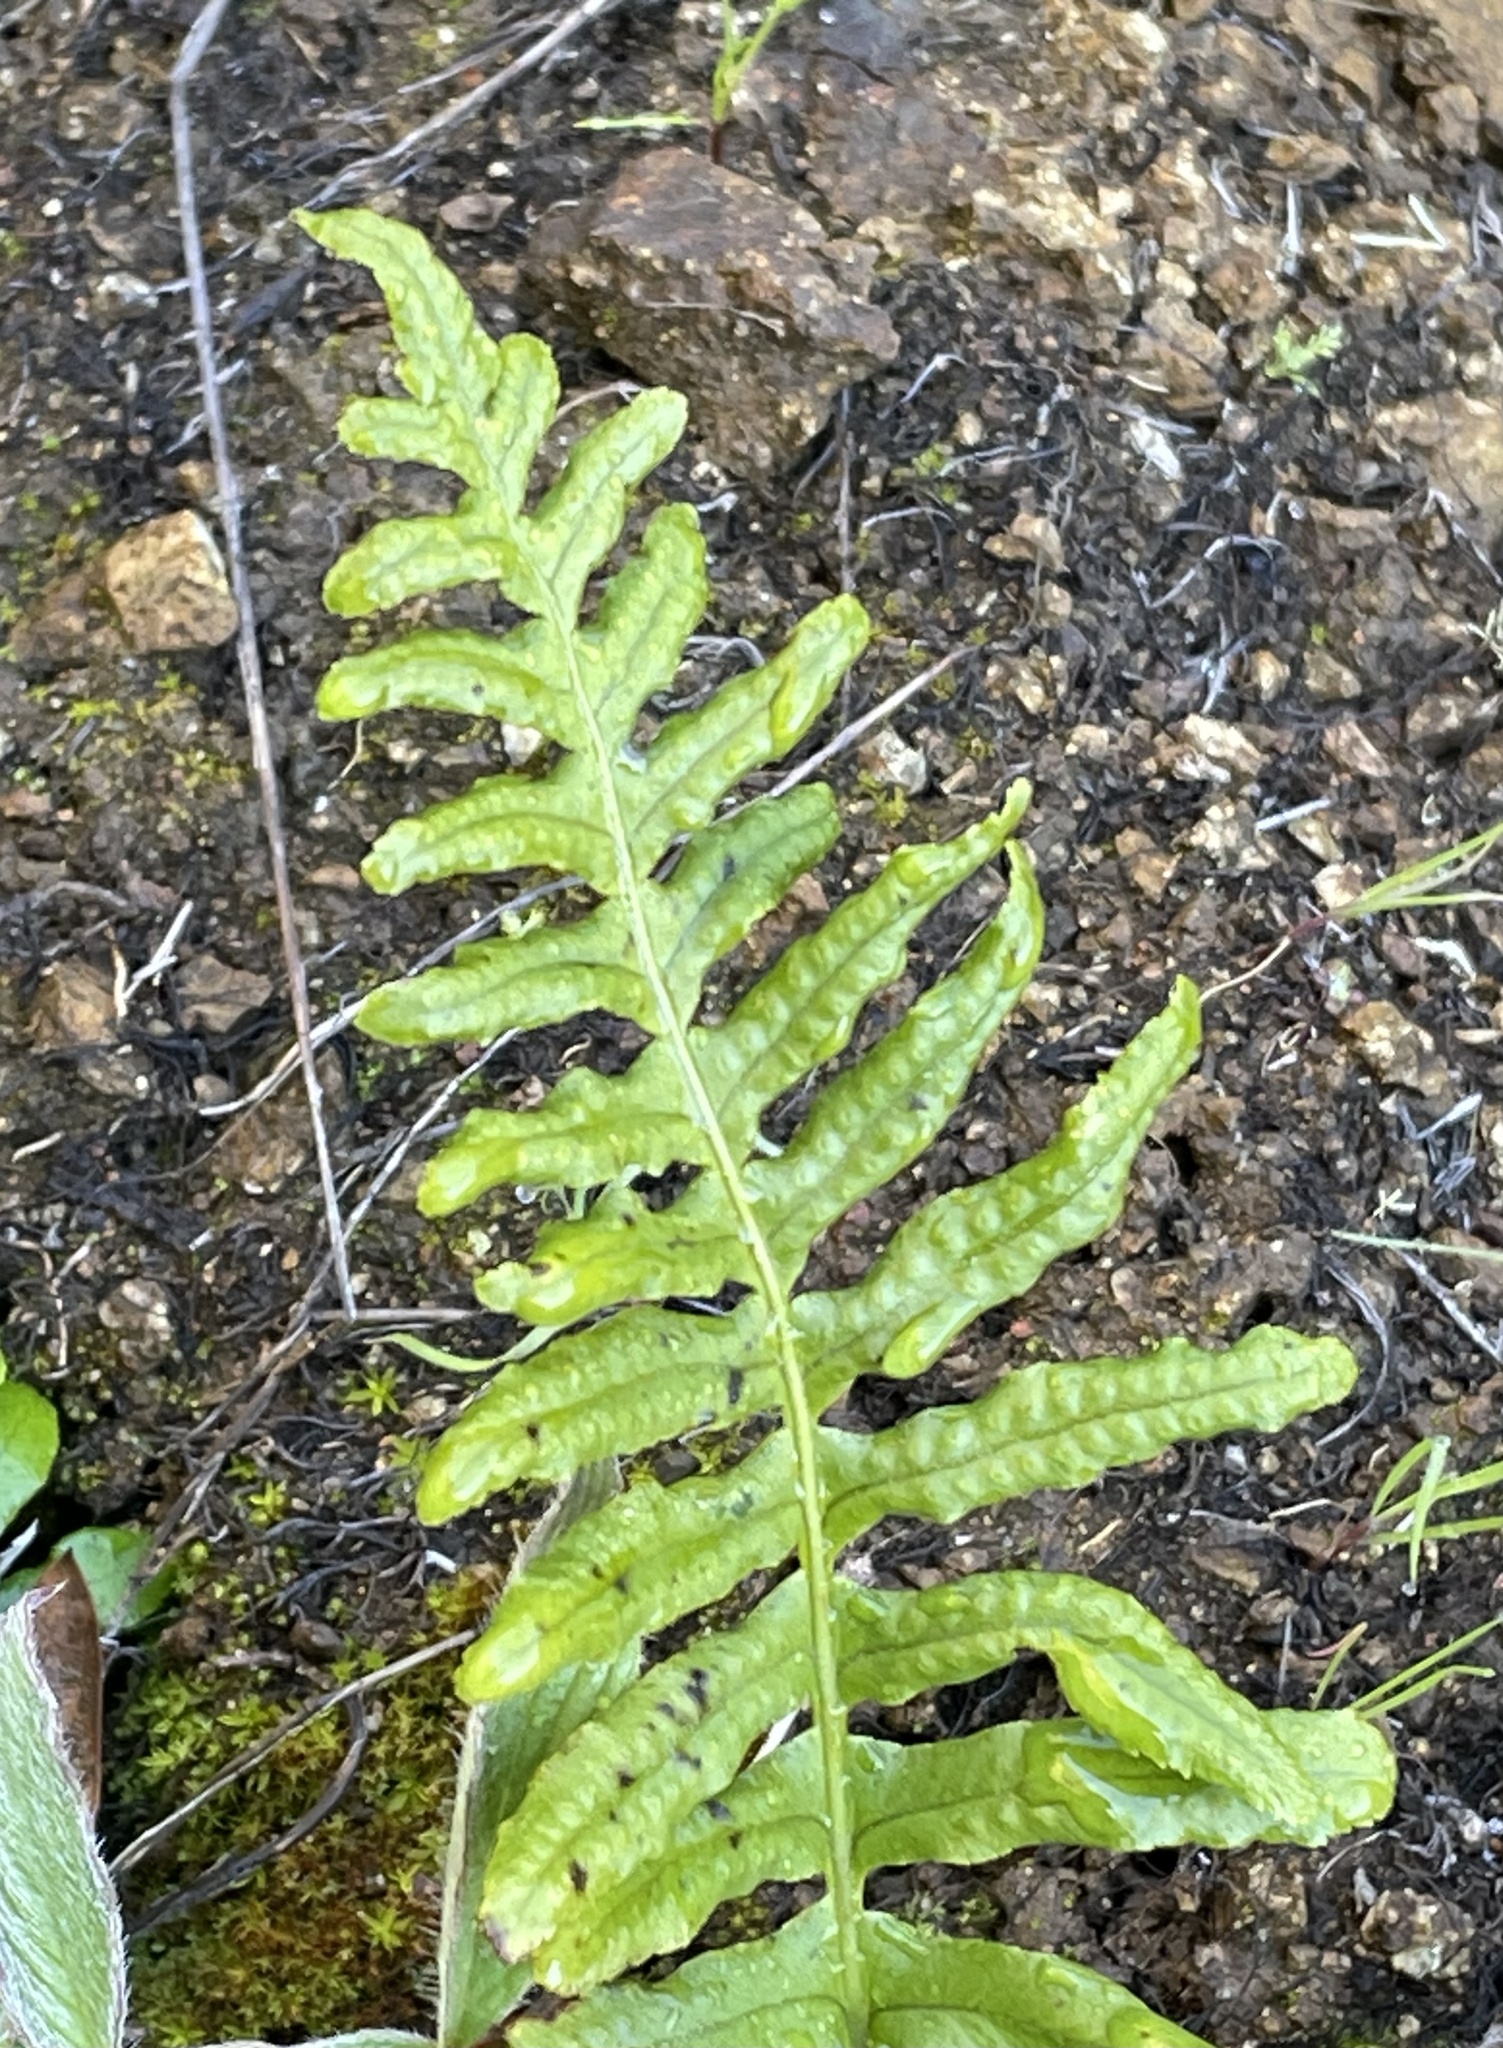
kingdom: Plantae
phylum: Tracheophyta
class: Polypodiopsida
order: Polypodiales
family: Polypodiaceae
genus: Polypodium
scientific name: Polypodium californicum
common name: California polypody
